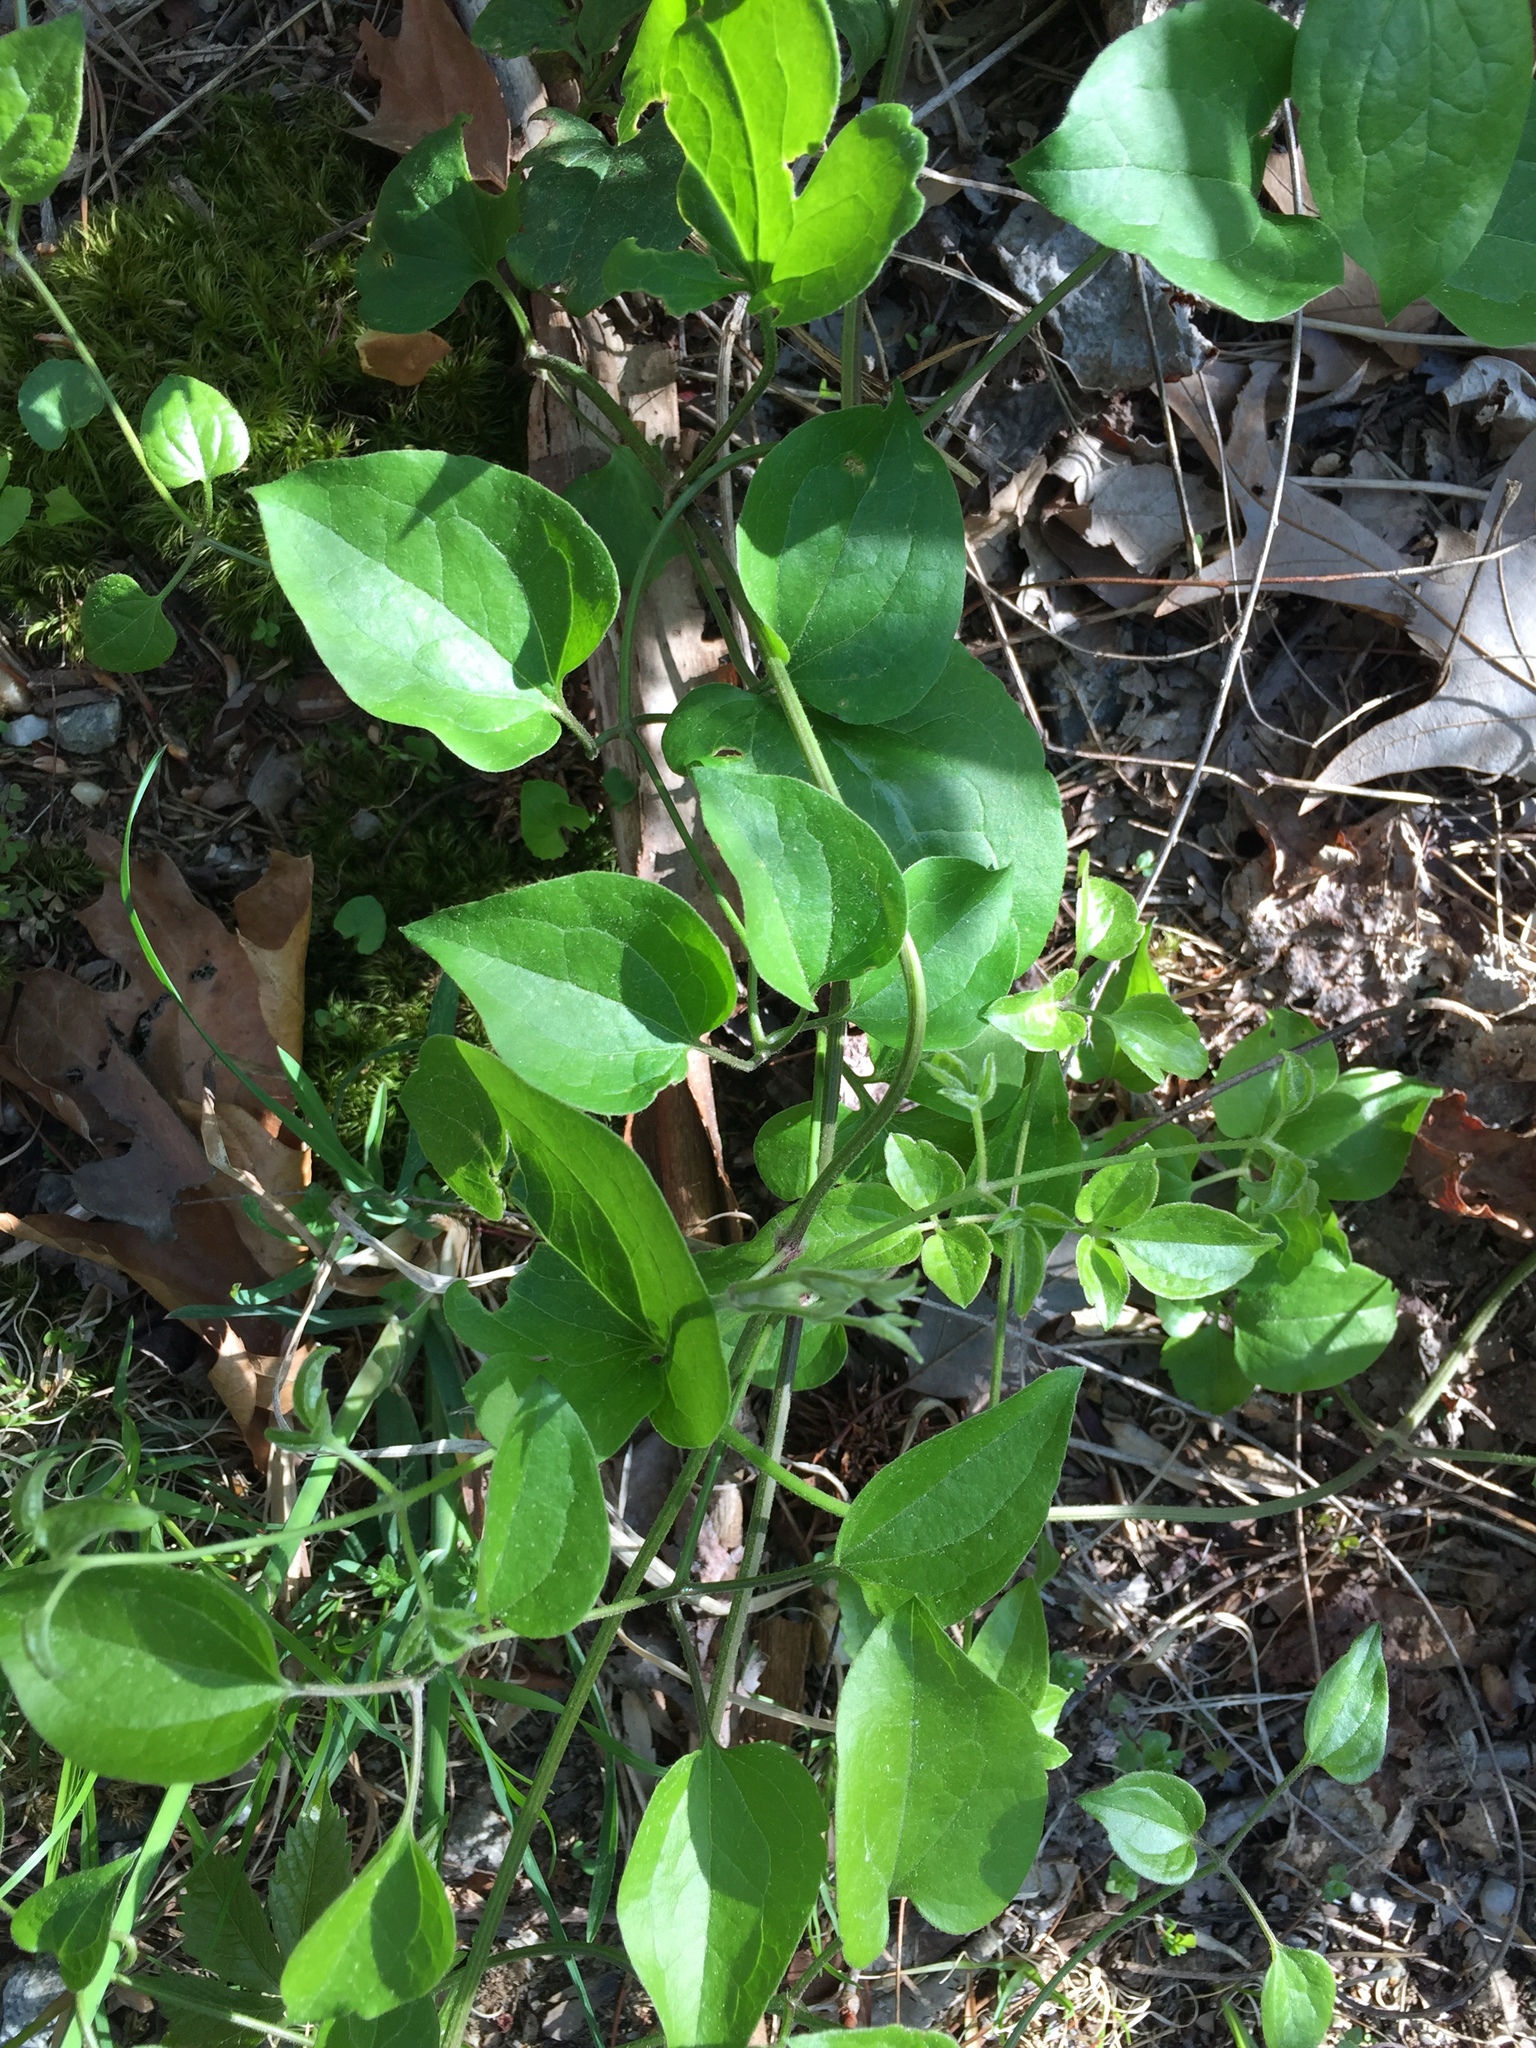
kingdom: Plantae
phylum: Tracheophyta
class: Magnoliopsida
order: Ranunculales
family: Ranunculaceae
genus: Clematis
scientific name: Clematis terniflora
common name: Sweet autumn clematis
